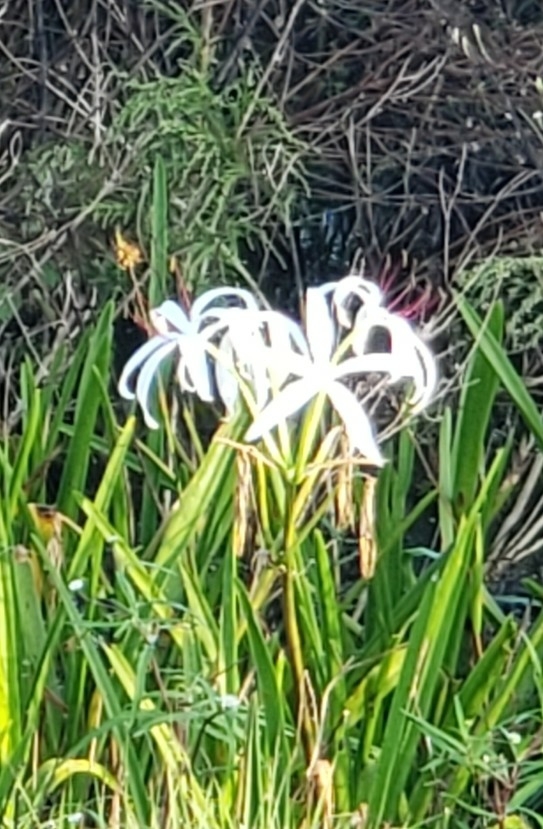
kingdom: Plantae
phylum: Tracheophyta
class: Liliopsida
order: Asparagales
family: Amaryllidaceae
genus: Crinum
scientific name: Crinum americanum
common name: Florida swamp-lily
